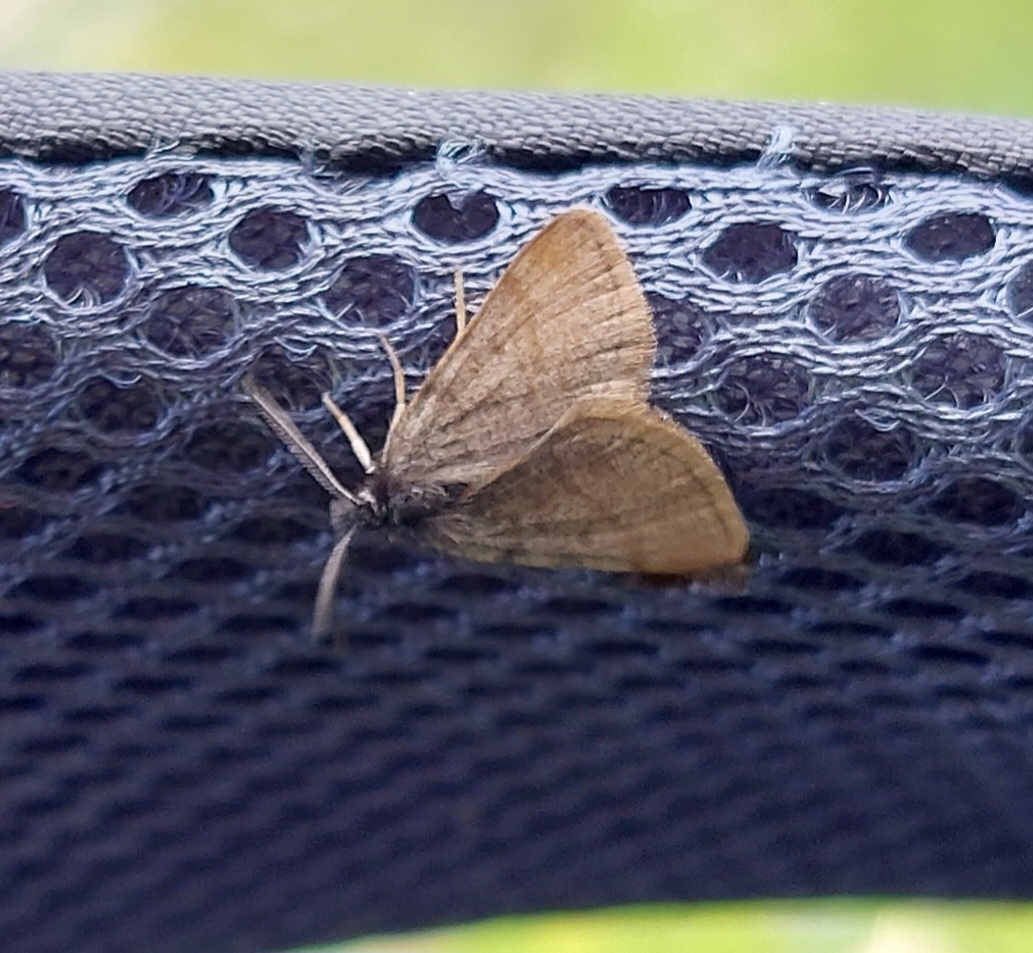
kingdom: Animalia
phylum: Arthropoda
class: Insecta
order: Lepidoptera
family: Geometridae
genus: Macaria
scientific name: Macaria fusca
